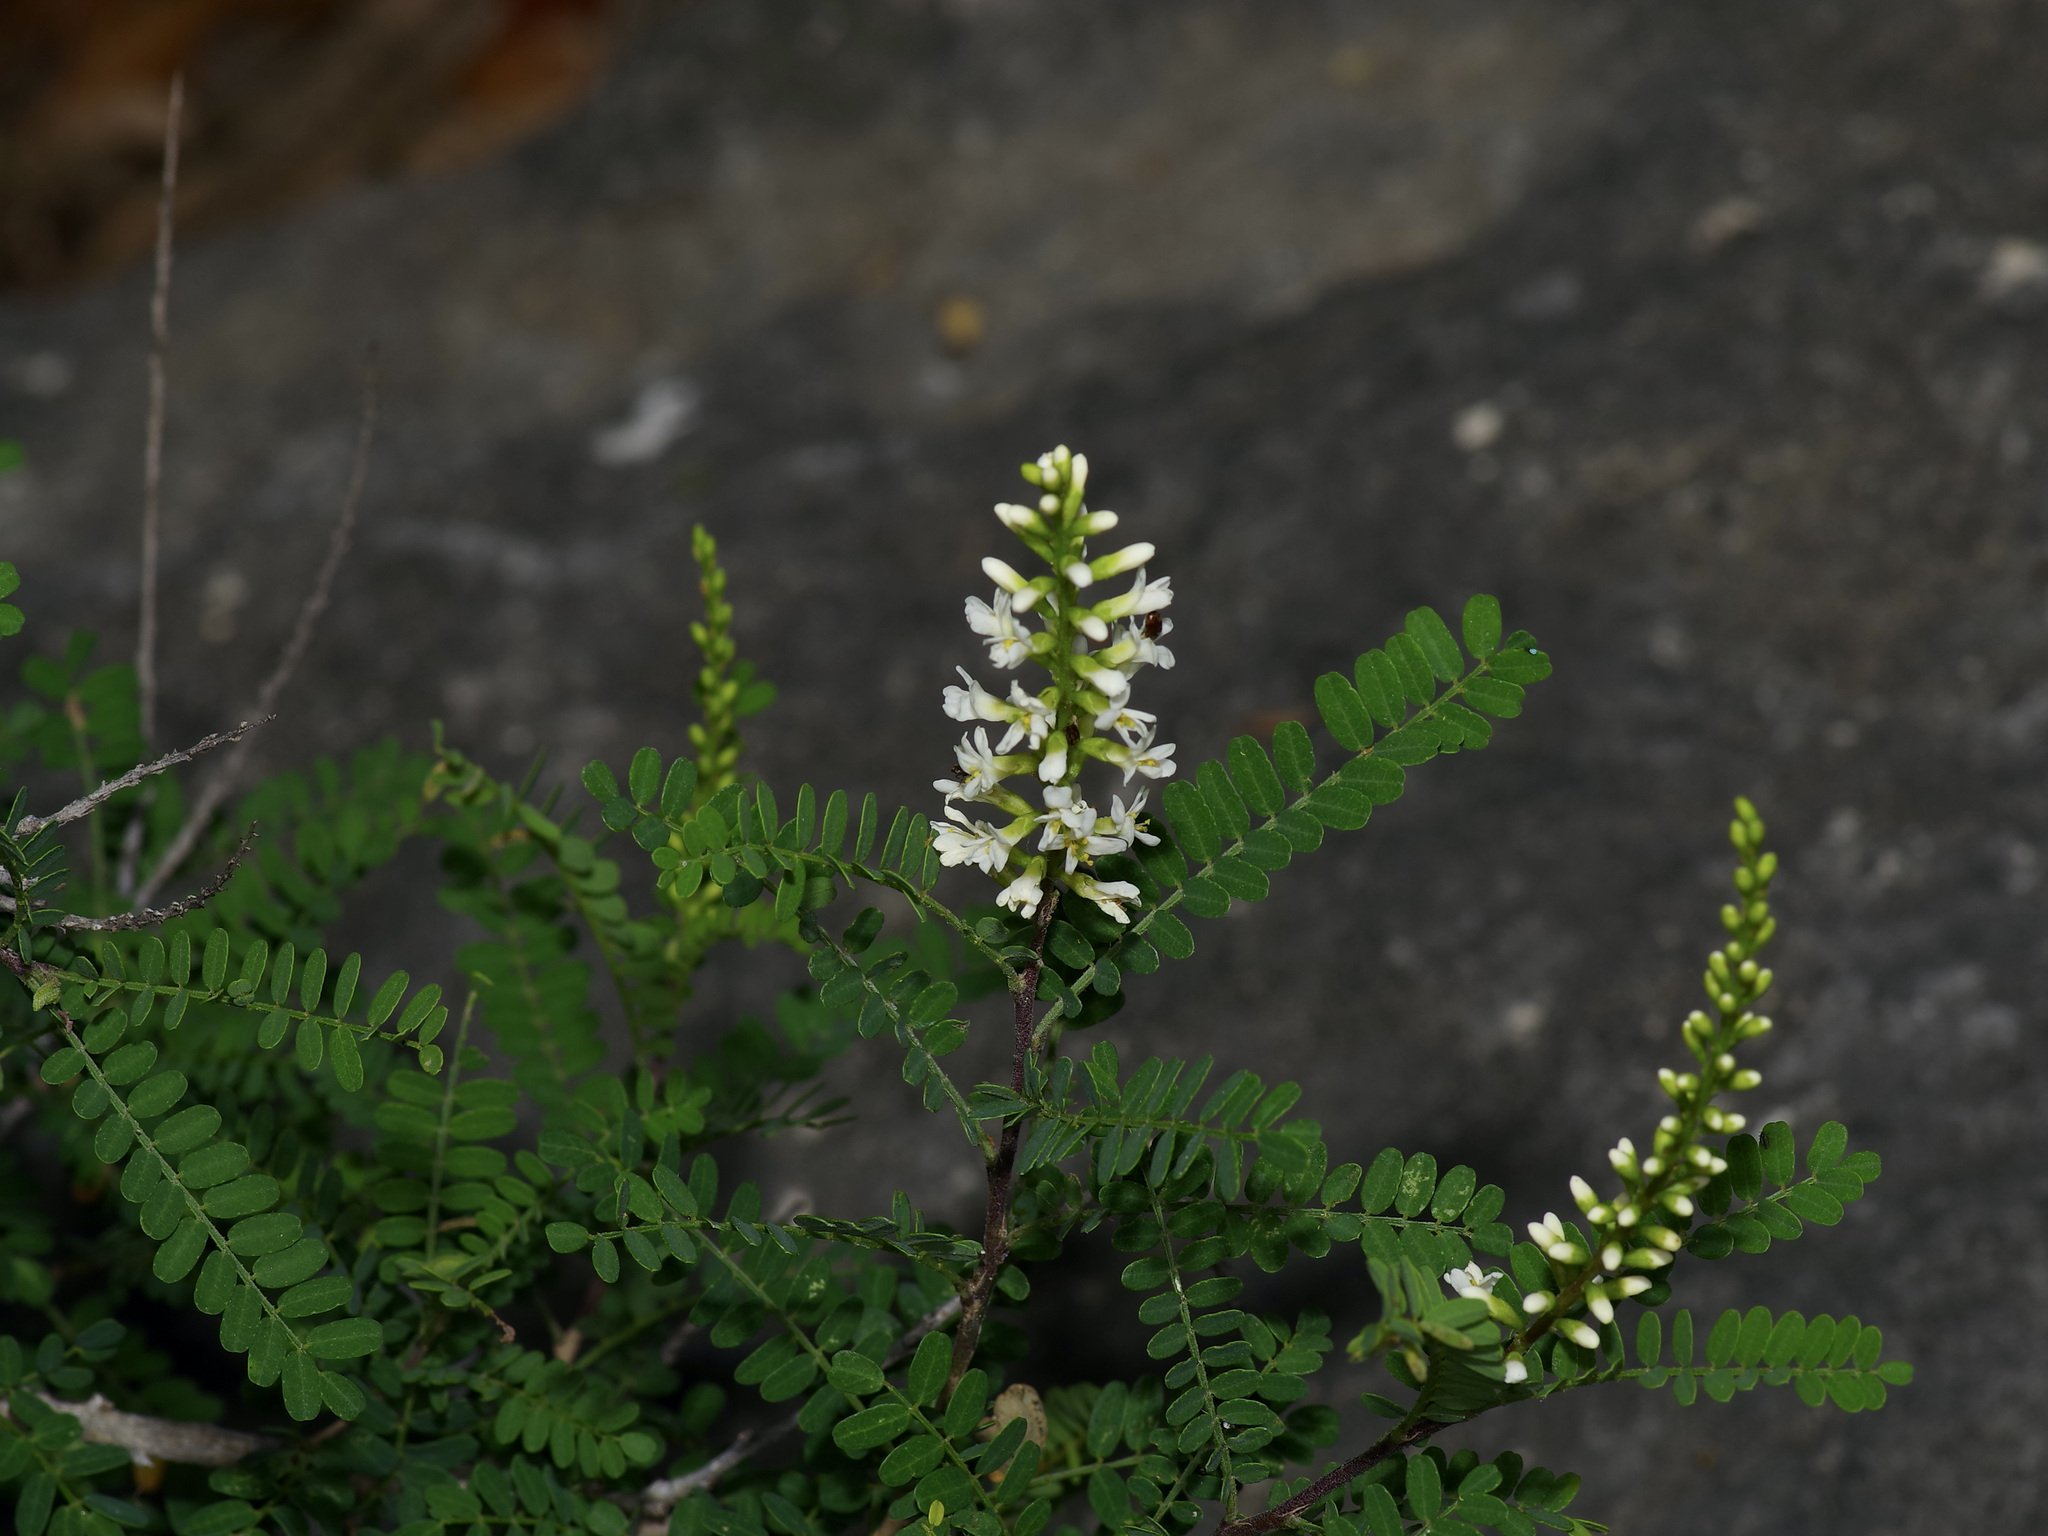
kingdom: Plantae
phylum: Tracheophyta
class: Magnoliopsida
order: Fabales
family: Fabaceae
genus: Eysenhardtia
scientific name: Eysenhardtia texana
